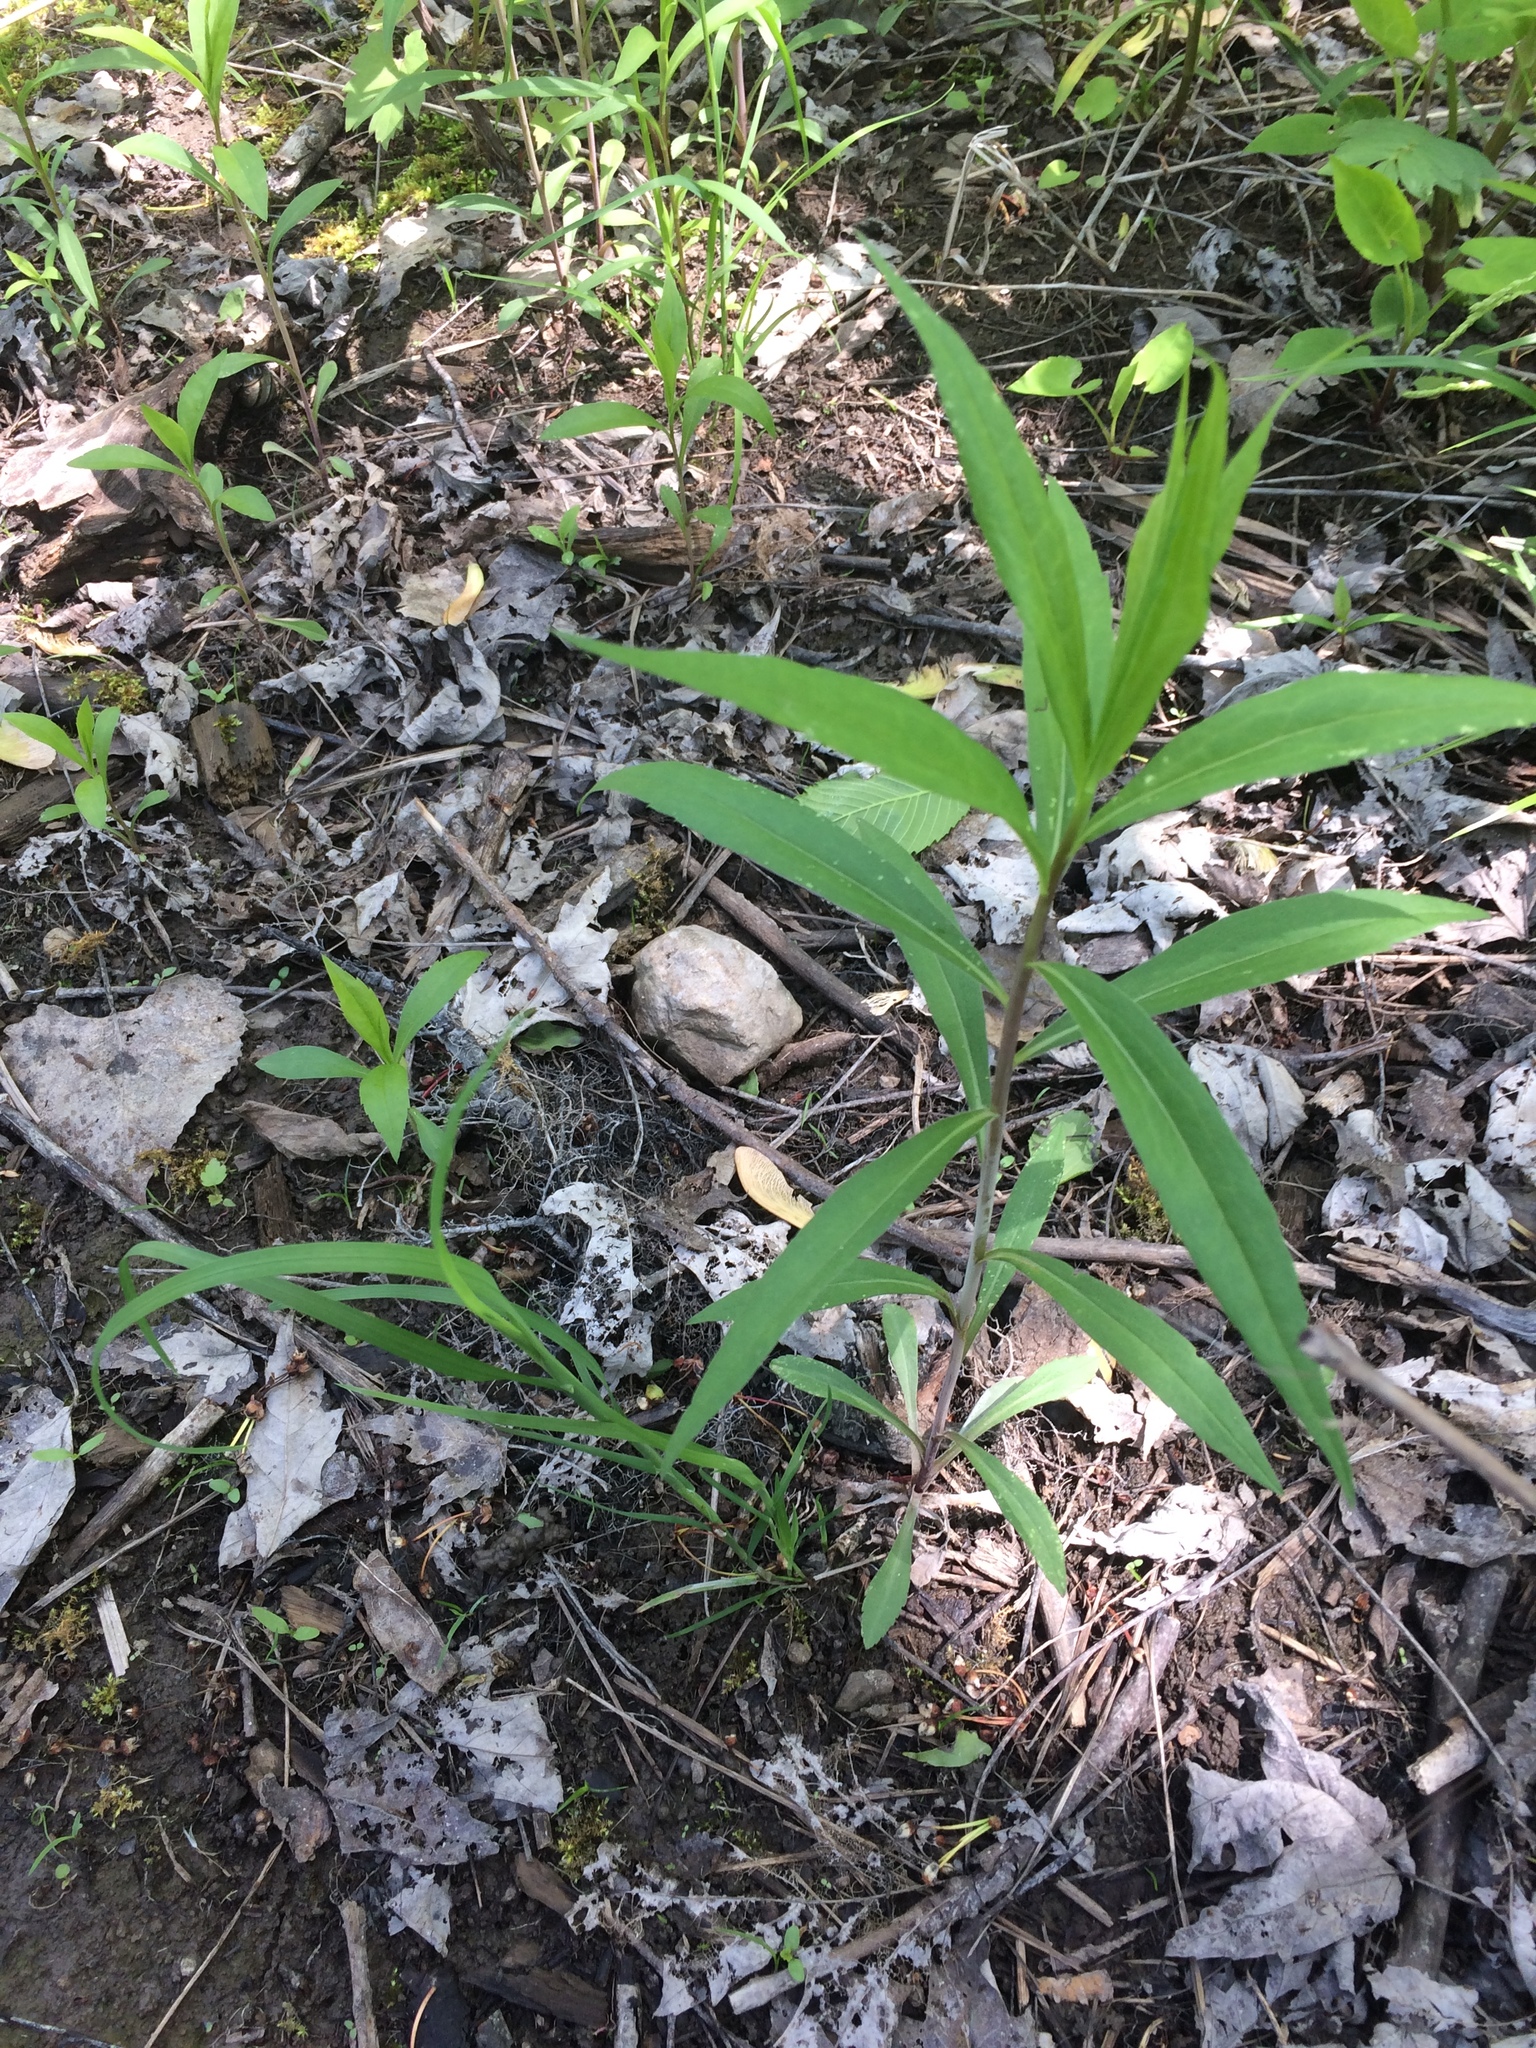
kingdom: Plantae
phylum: Tracheophyta
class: Magnoliopsida
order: Asterales
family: Asteraceae
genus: Solidago
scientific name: Solidago gigantea
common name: Giant goldenrod
